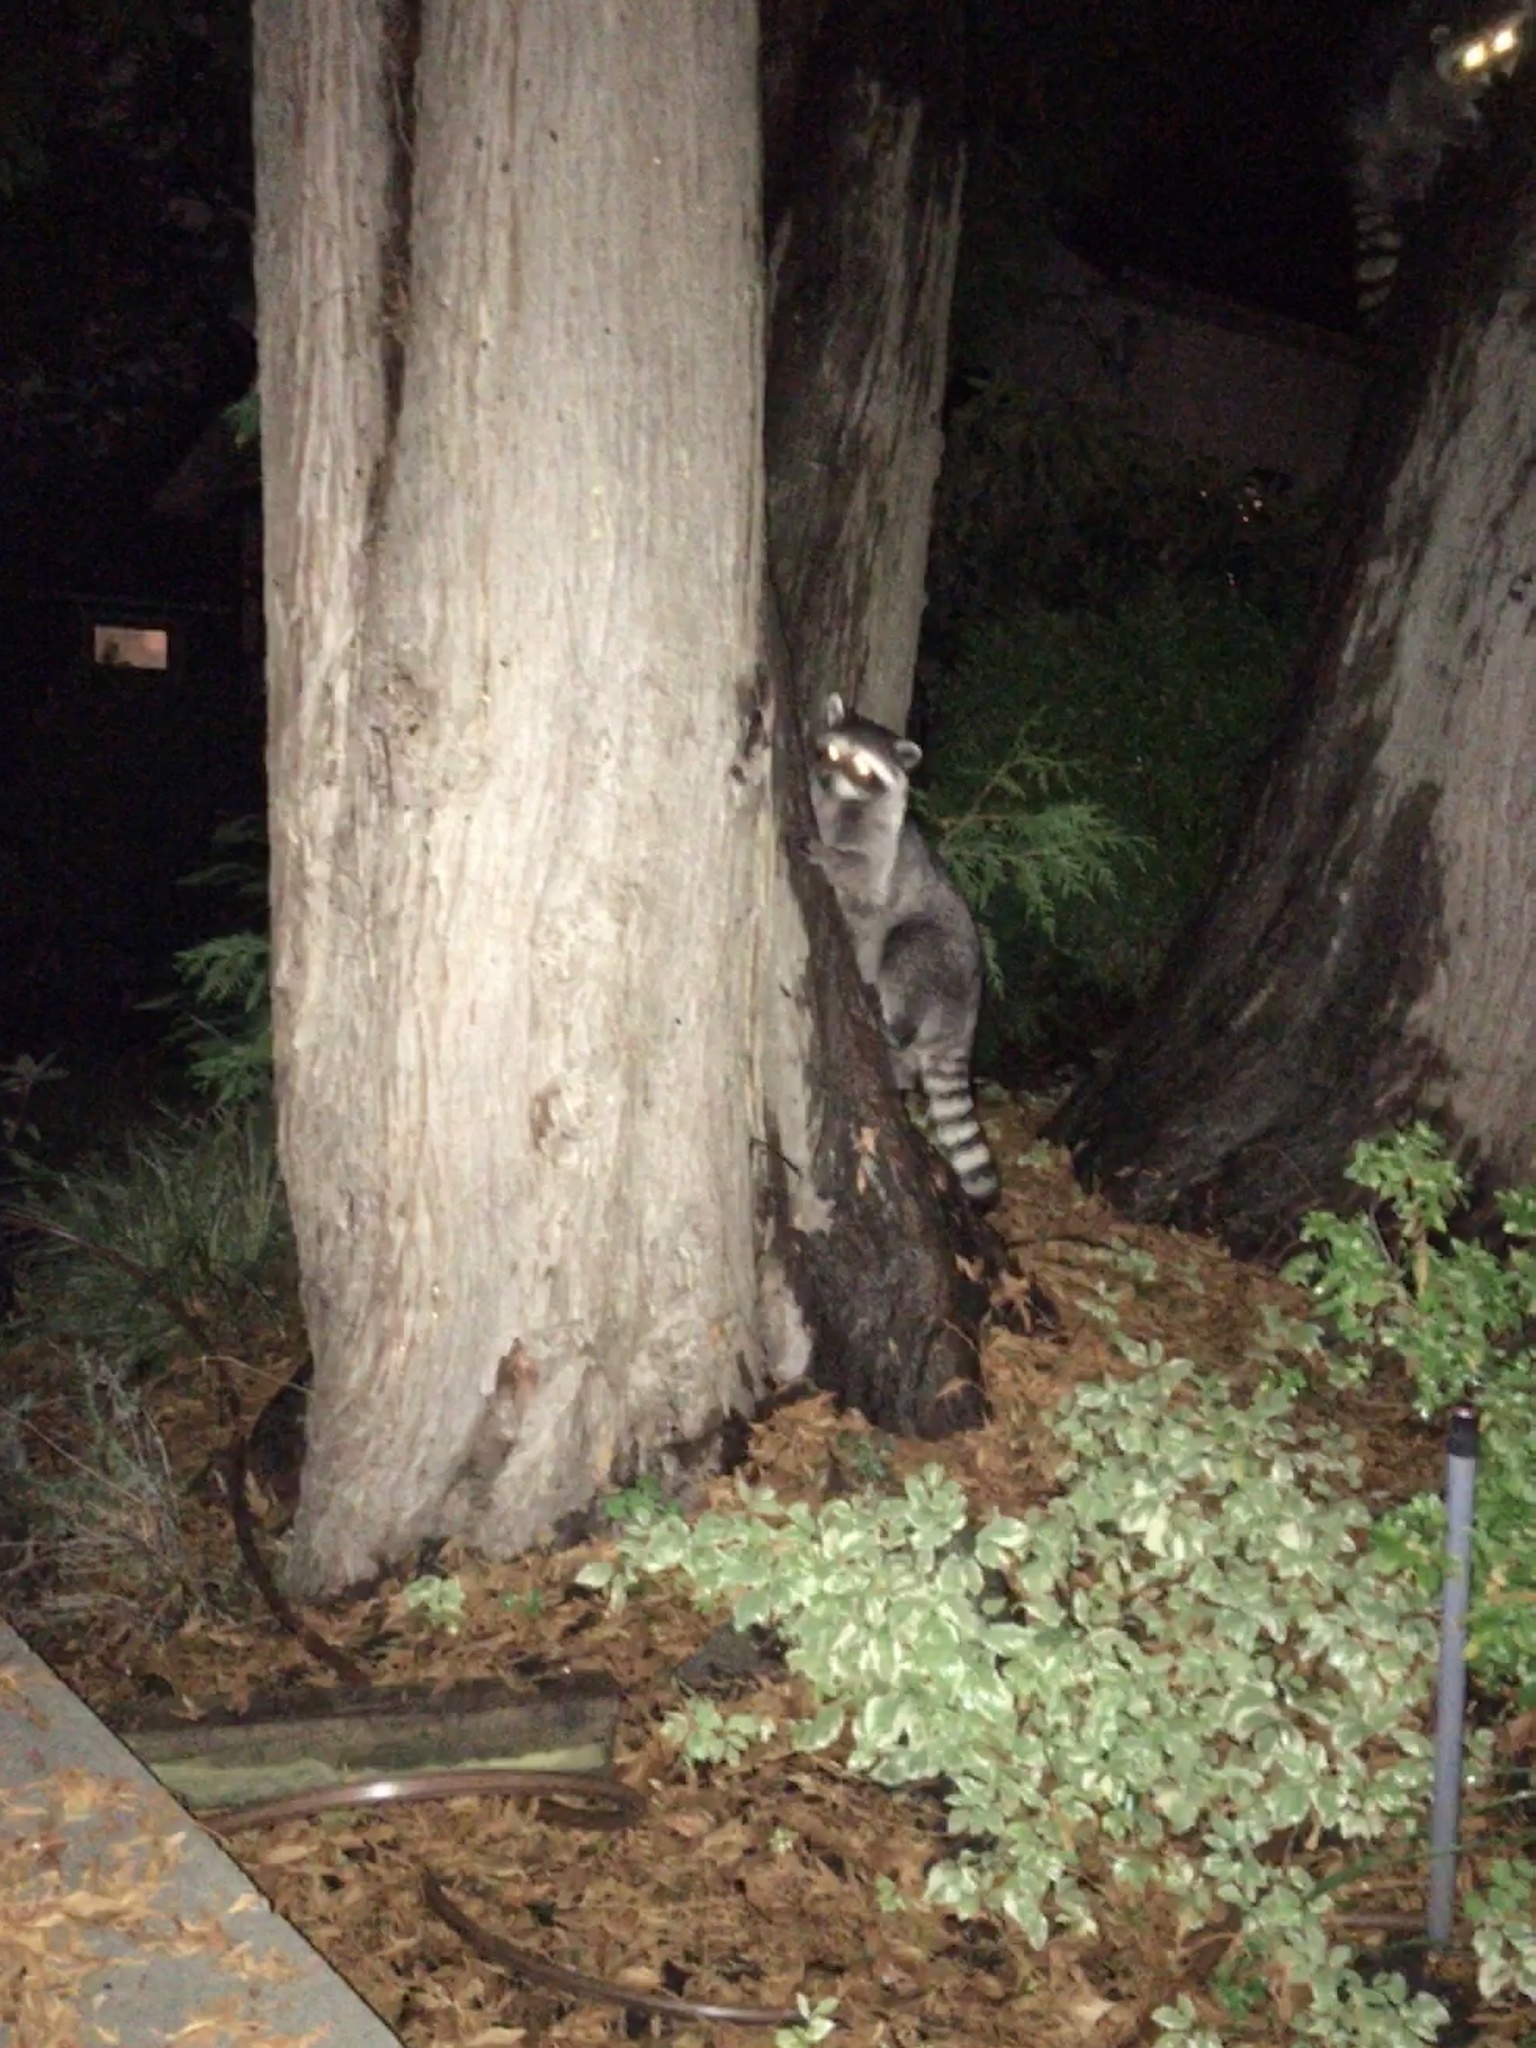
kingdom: Animalia
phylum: Chordata
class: Mammalia
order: Carnivora
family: Procyonidae
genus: Procyon
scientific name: Procyon lotor
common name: Raccoon
